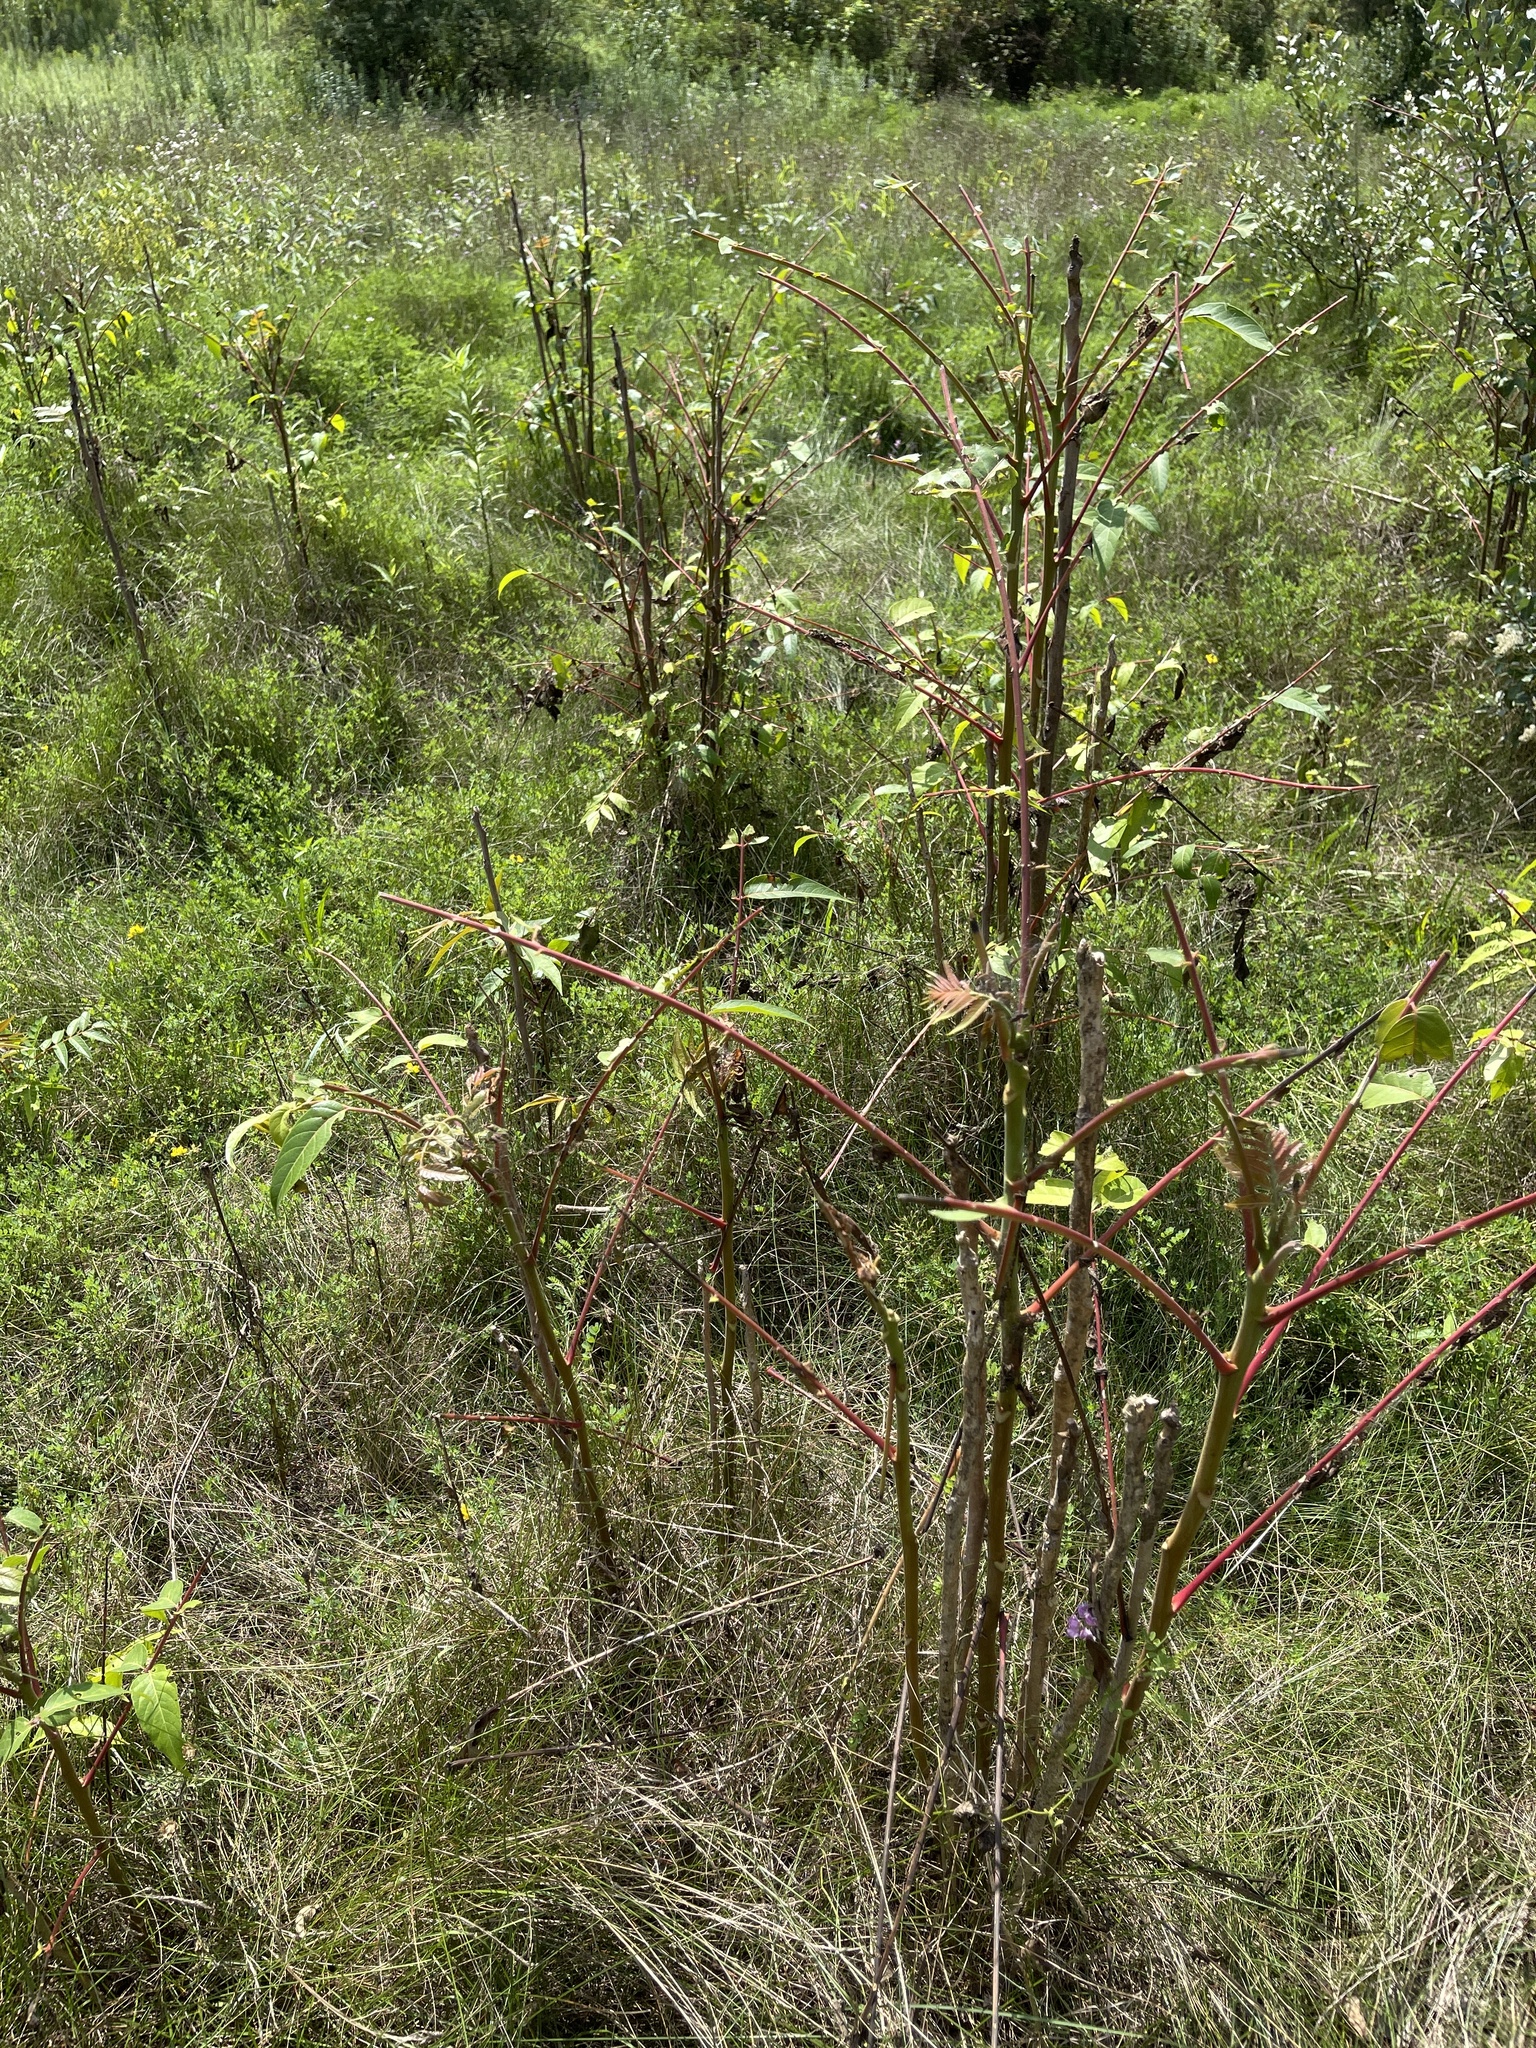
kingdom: Plantae
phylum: Tracheophyta
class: Magnoliopsida
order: Sapindales
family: Simaroubaceae
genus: Ailanthus
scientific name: Ailanthus altissima
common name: Tree-of-heaven
